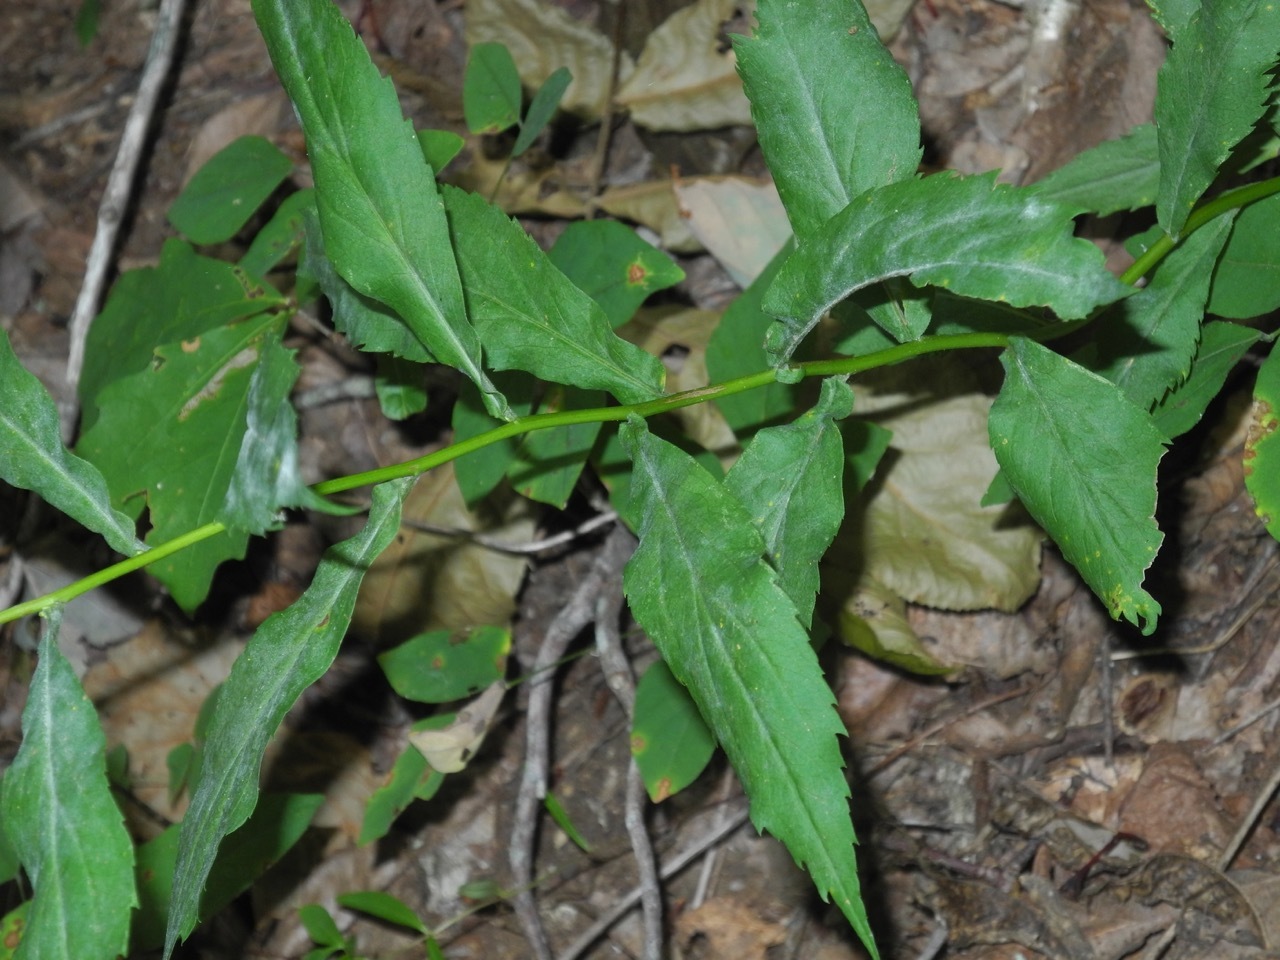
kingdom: Plantae
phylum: Tracheophyta
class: Magnoliopsida
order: Asterales
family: Asteraceae
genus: Solidago
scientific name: Solidago curtisii
